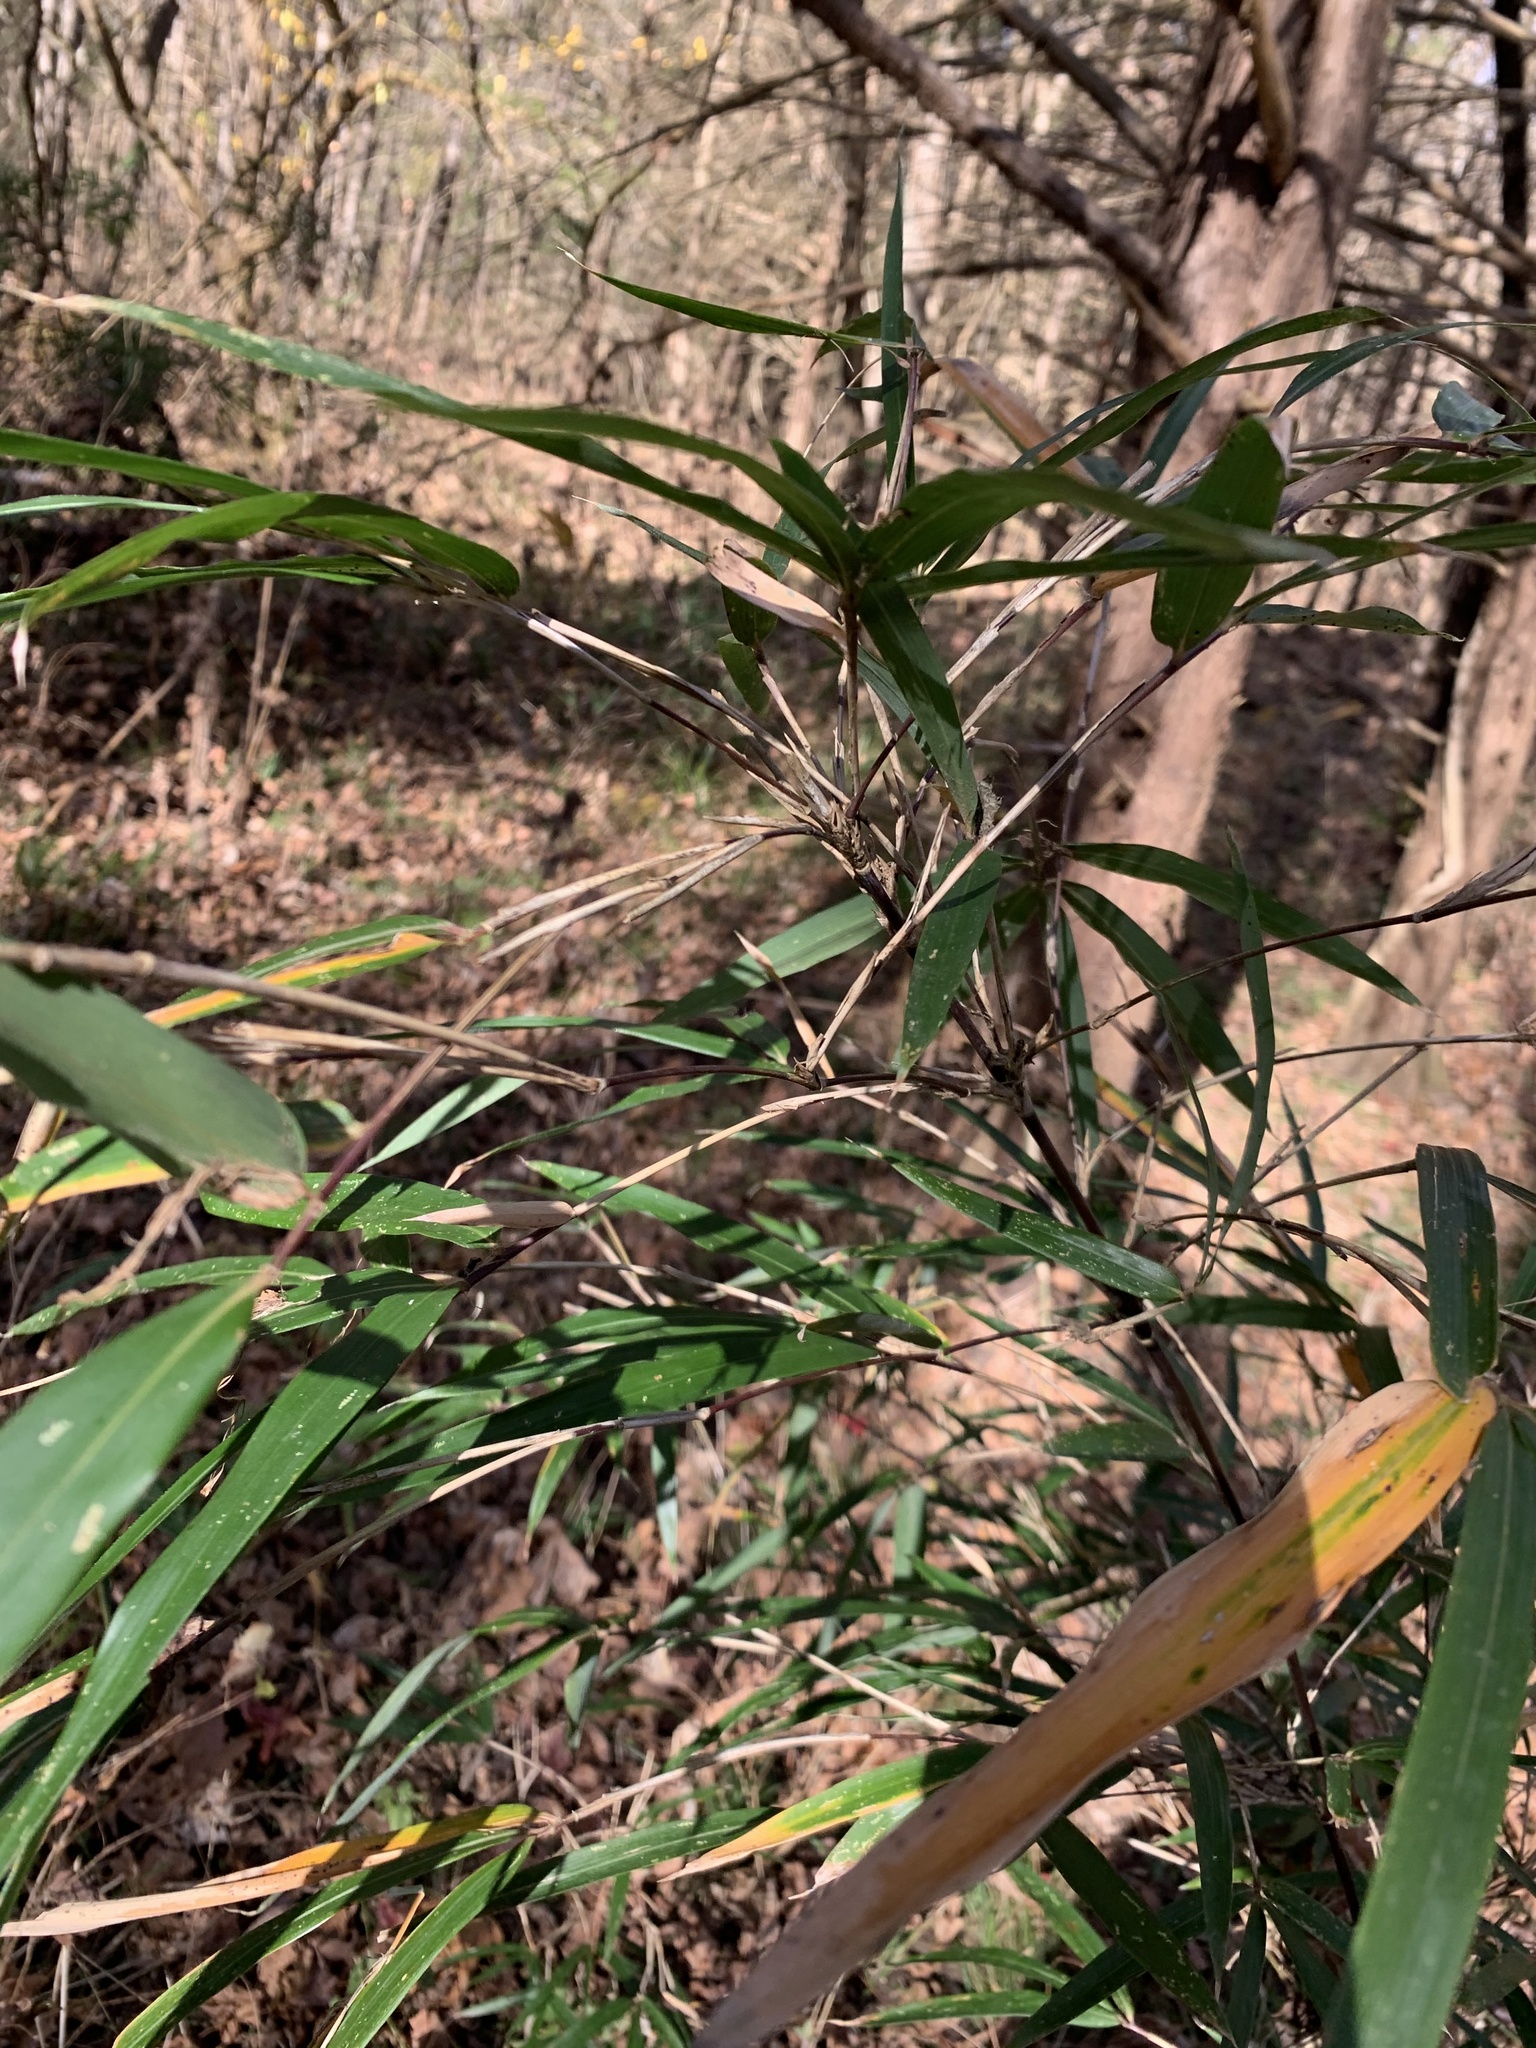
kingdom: Plantae
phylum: Tracheophyta
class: Liliopsida
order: Poales
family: Poaceae
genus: Arundinaria
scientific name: Arundinaria gigantea
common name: Giant cane
